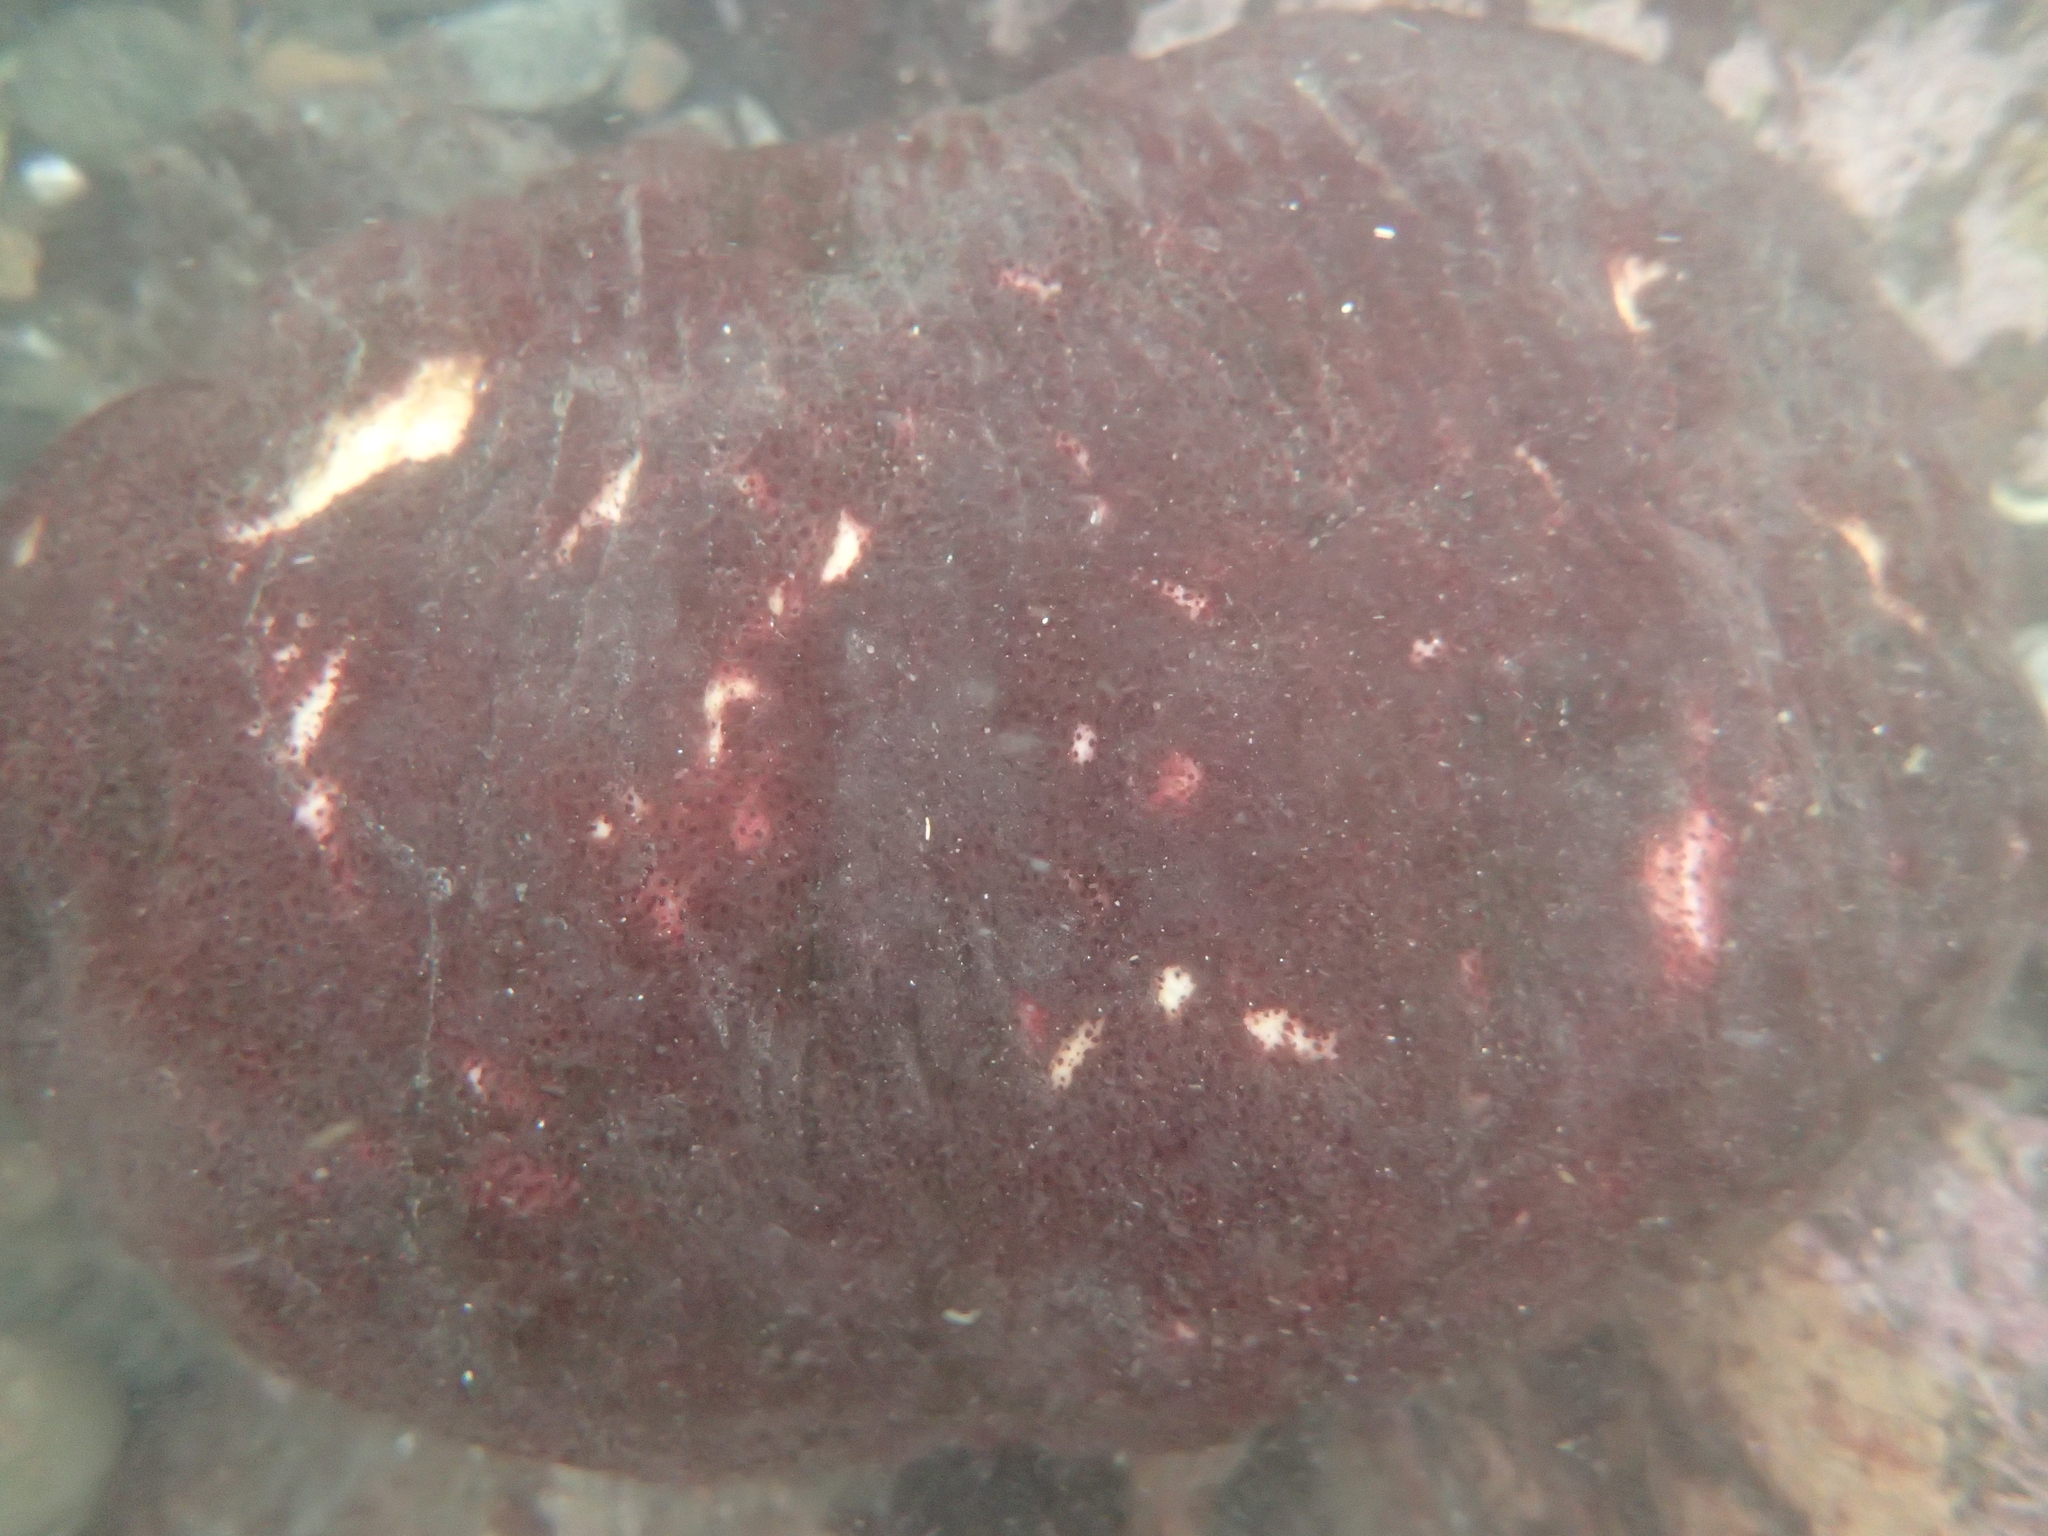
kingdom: Animalia
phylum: Mollusca
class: Polyplacophora
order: Chitonida
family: Acanthochitonidae
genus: Cryptochiton
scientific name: Cryptochiton stelleri
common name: Giant pacific chiton
